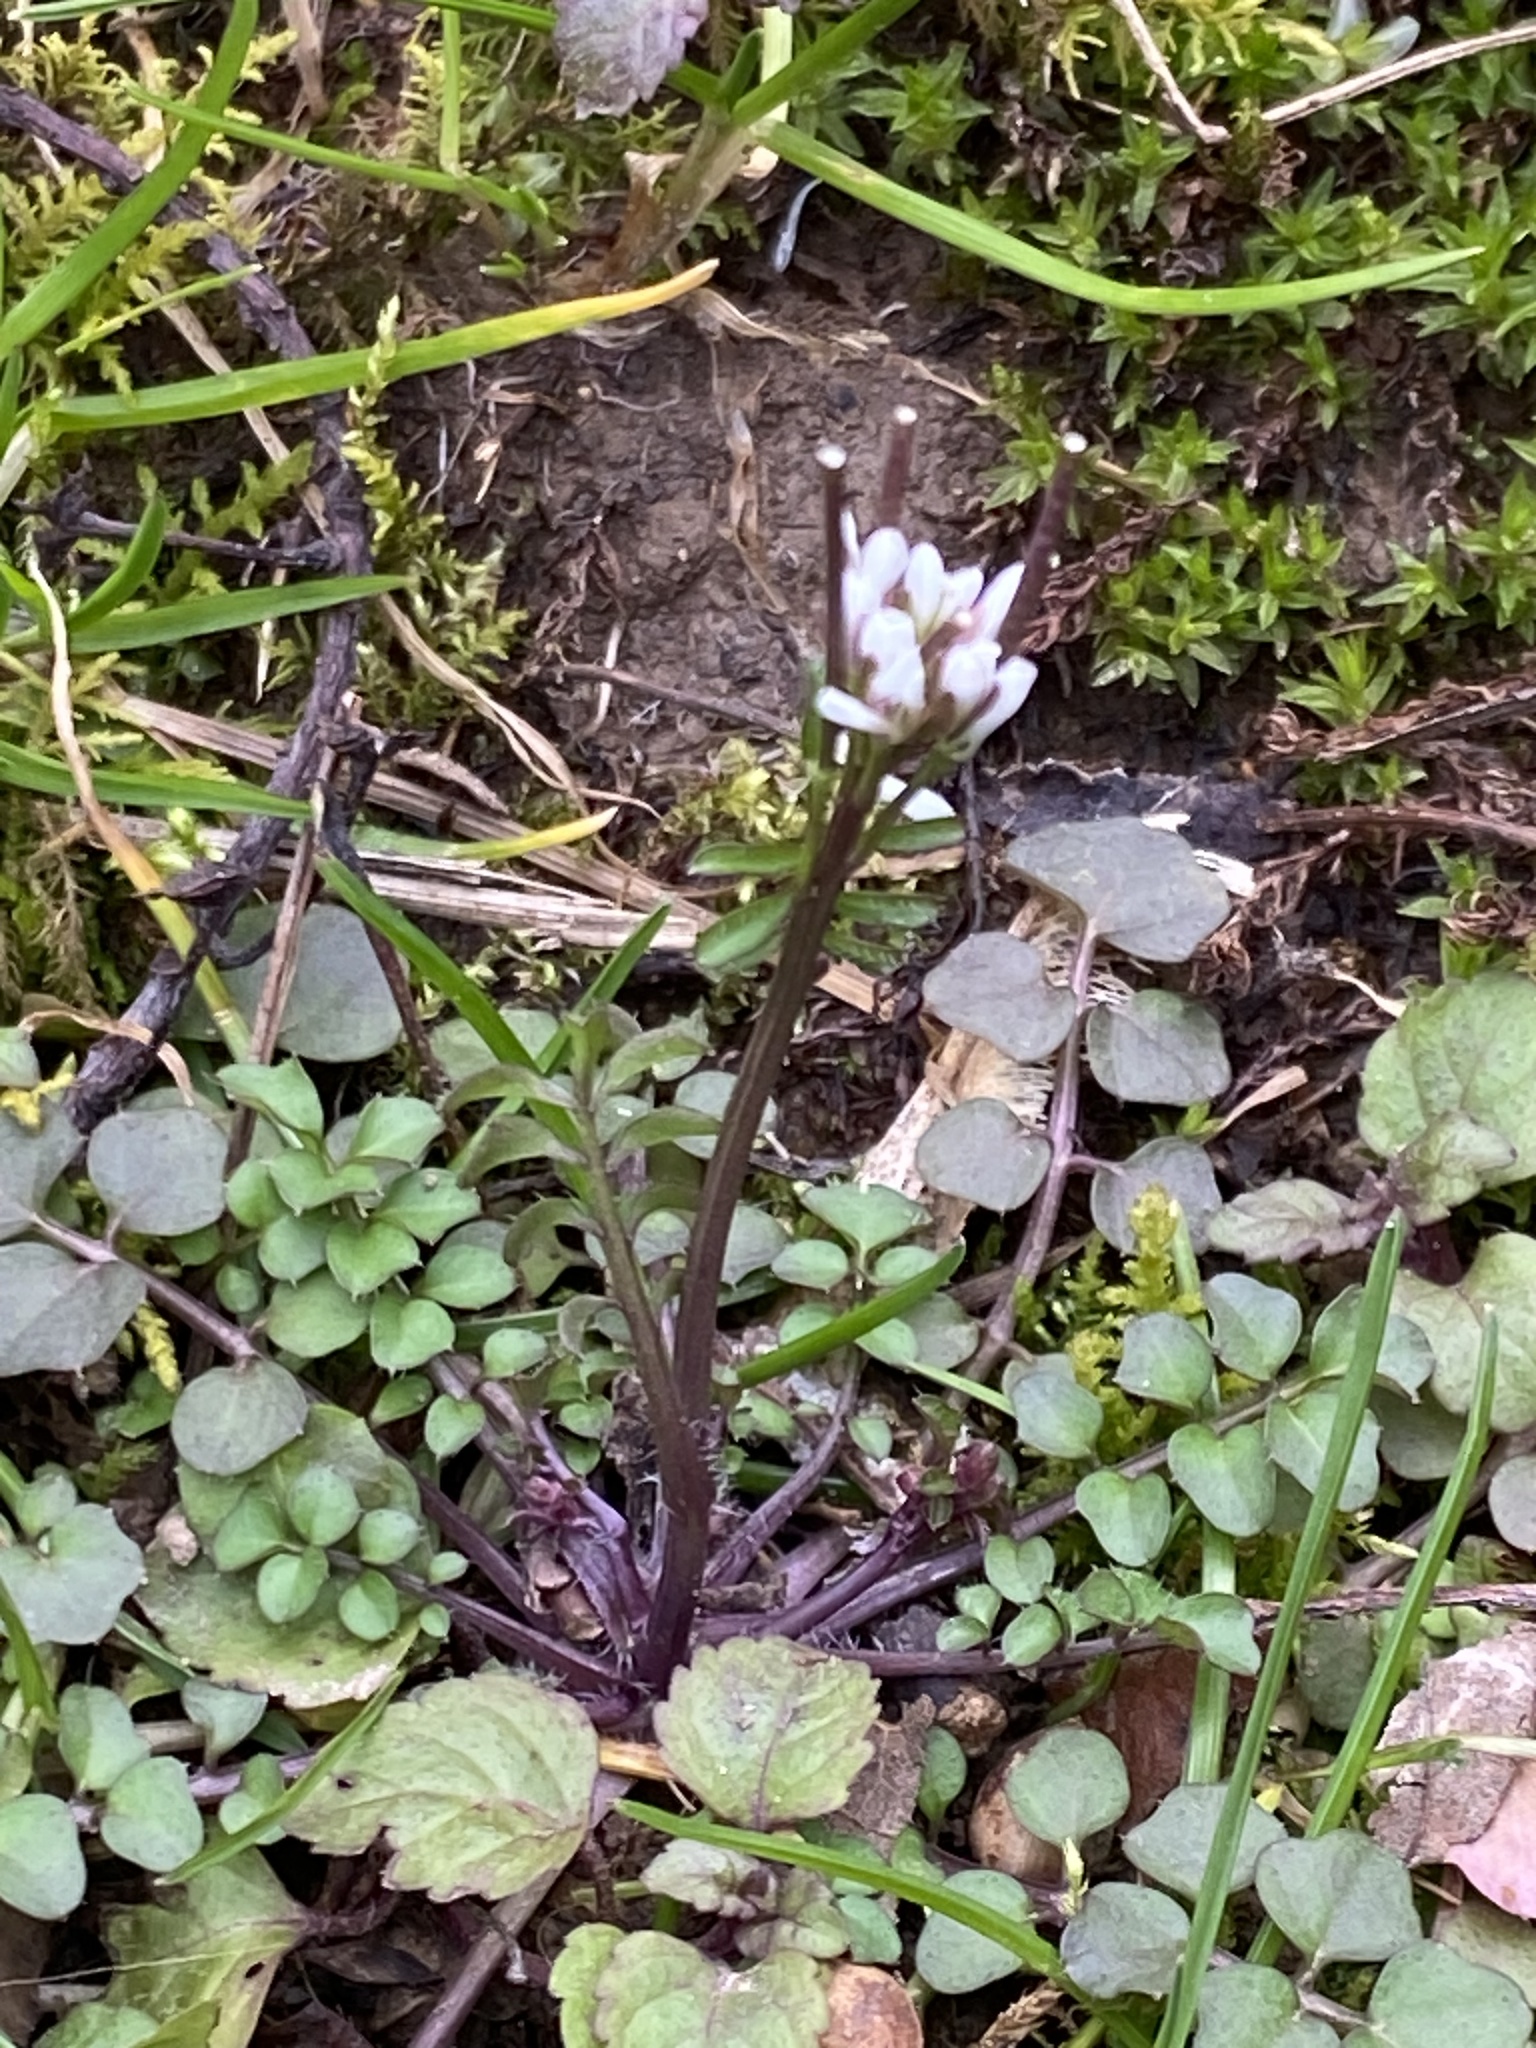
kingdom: Plantae
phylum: Tracheophyta
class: Magnoliopsida
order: Brassicales
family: Brassicaceae
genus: Cardamine
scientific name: Cardamine hirsuta
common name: Hairy bittercress
